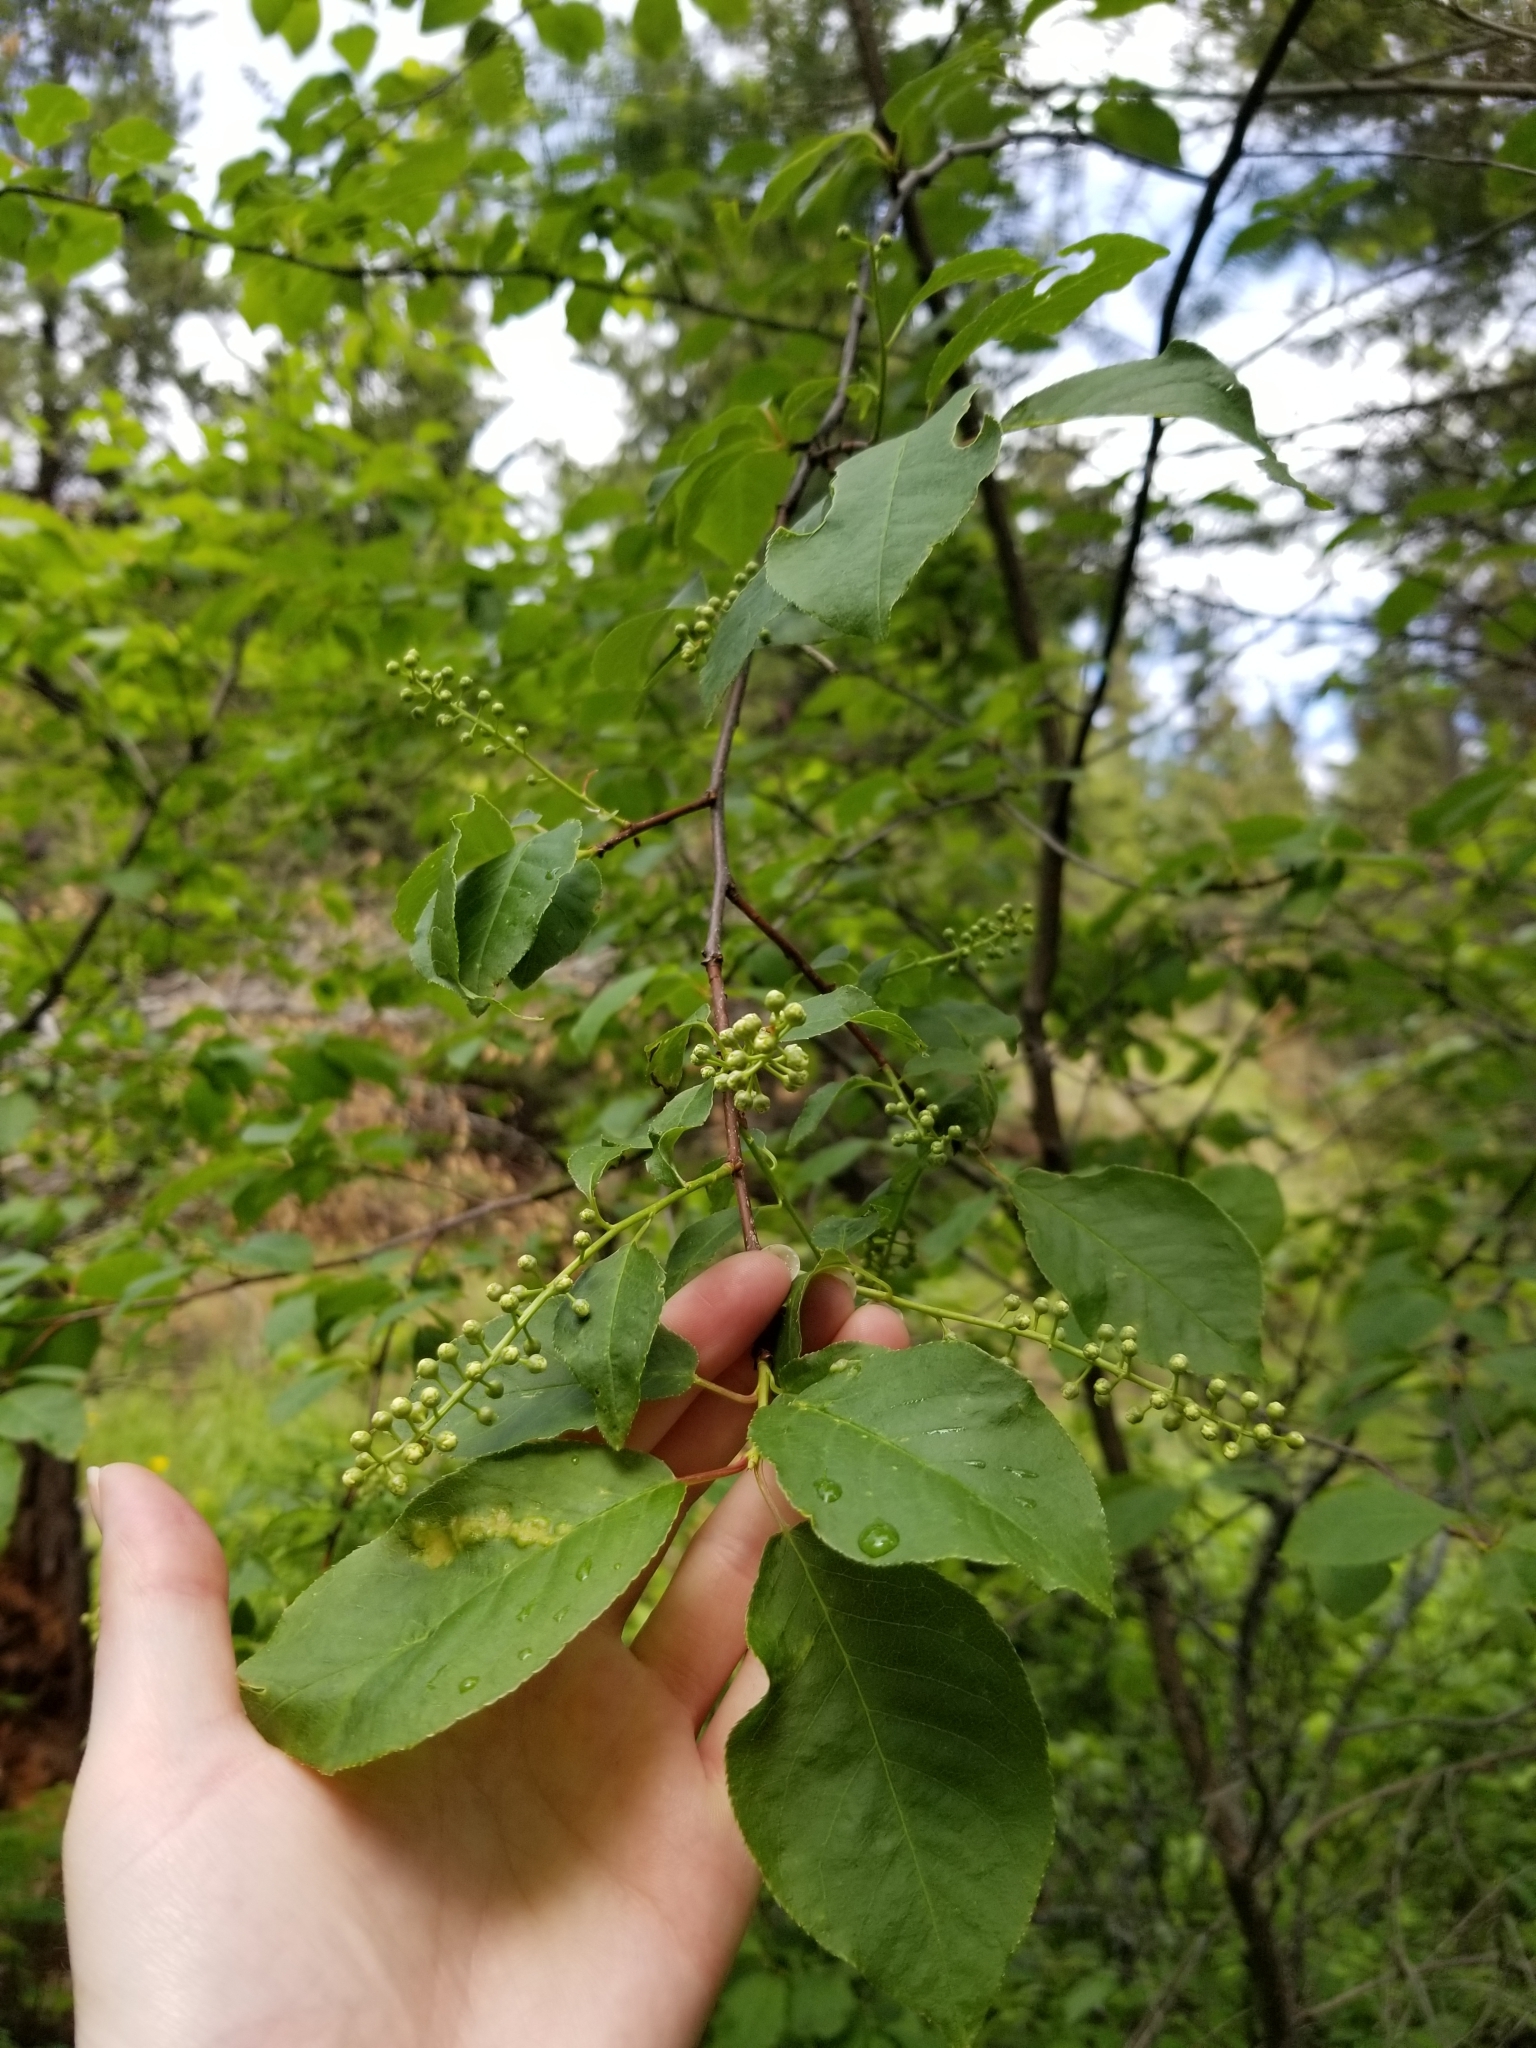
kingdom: Plantae
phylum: Tracheophyta
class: Magnoliopsida
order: Rosales
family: Rosaceae
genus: Prunus
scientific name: Prunus virginiana
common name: Chokecherry
